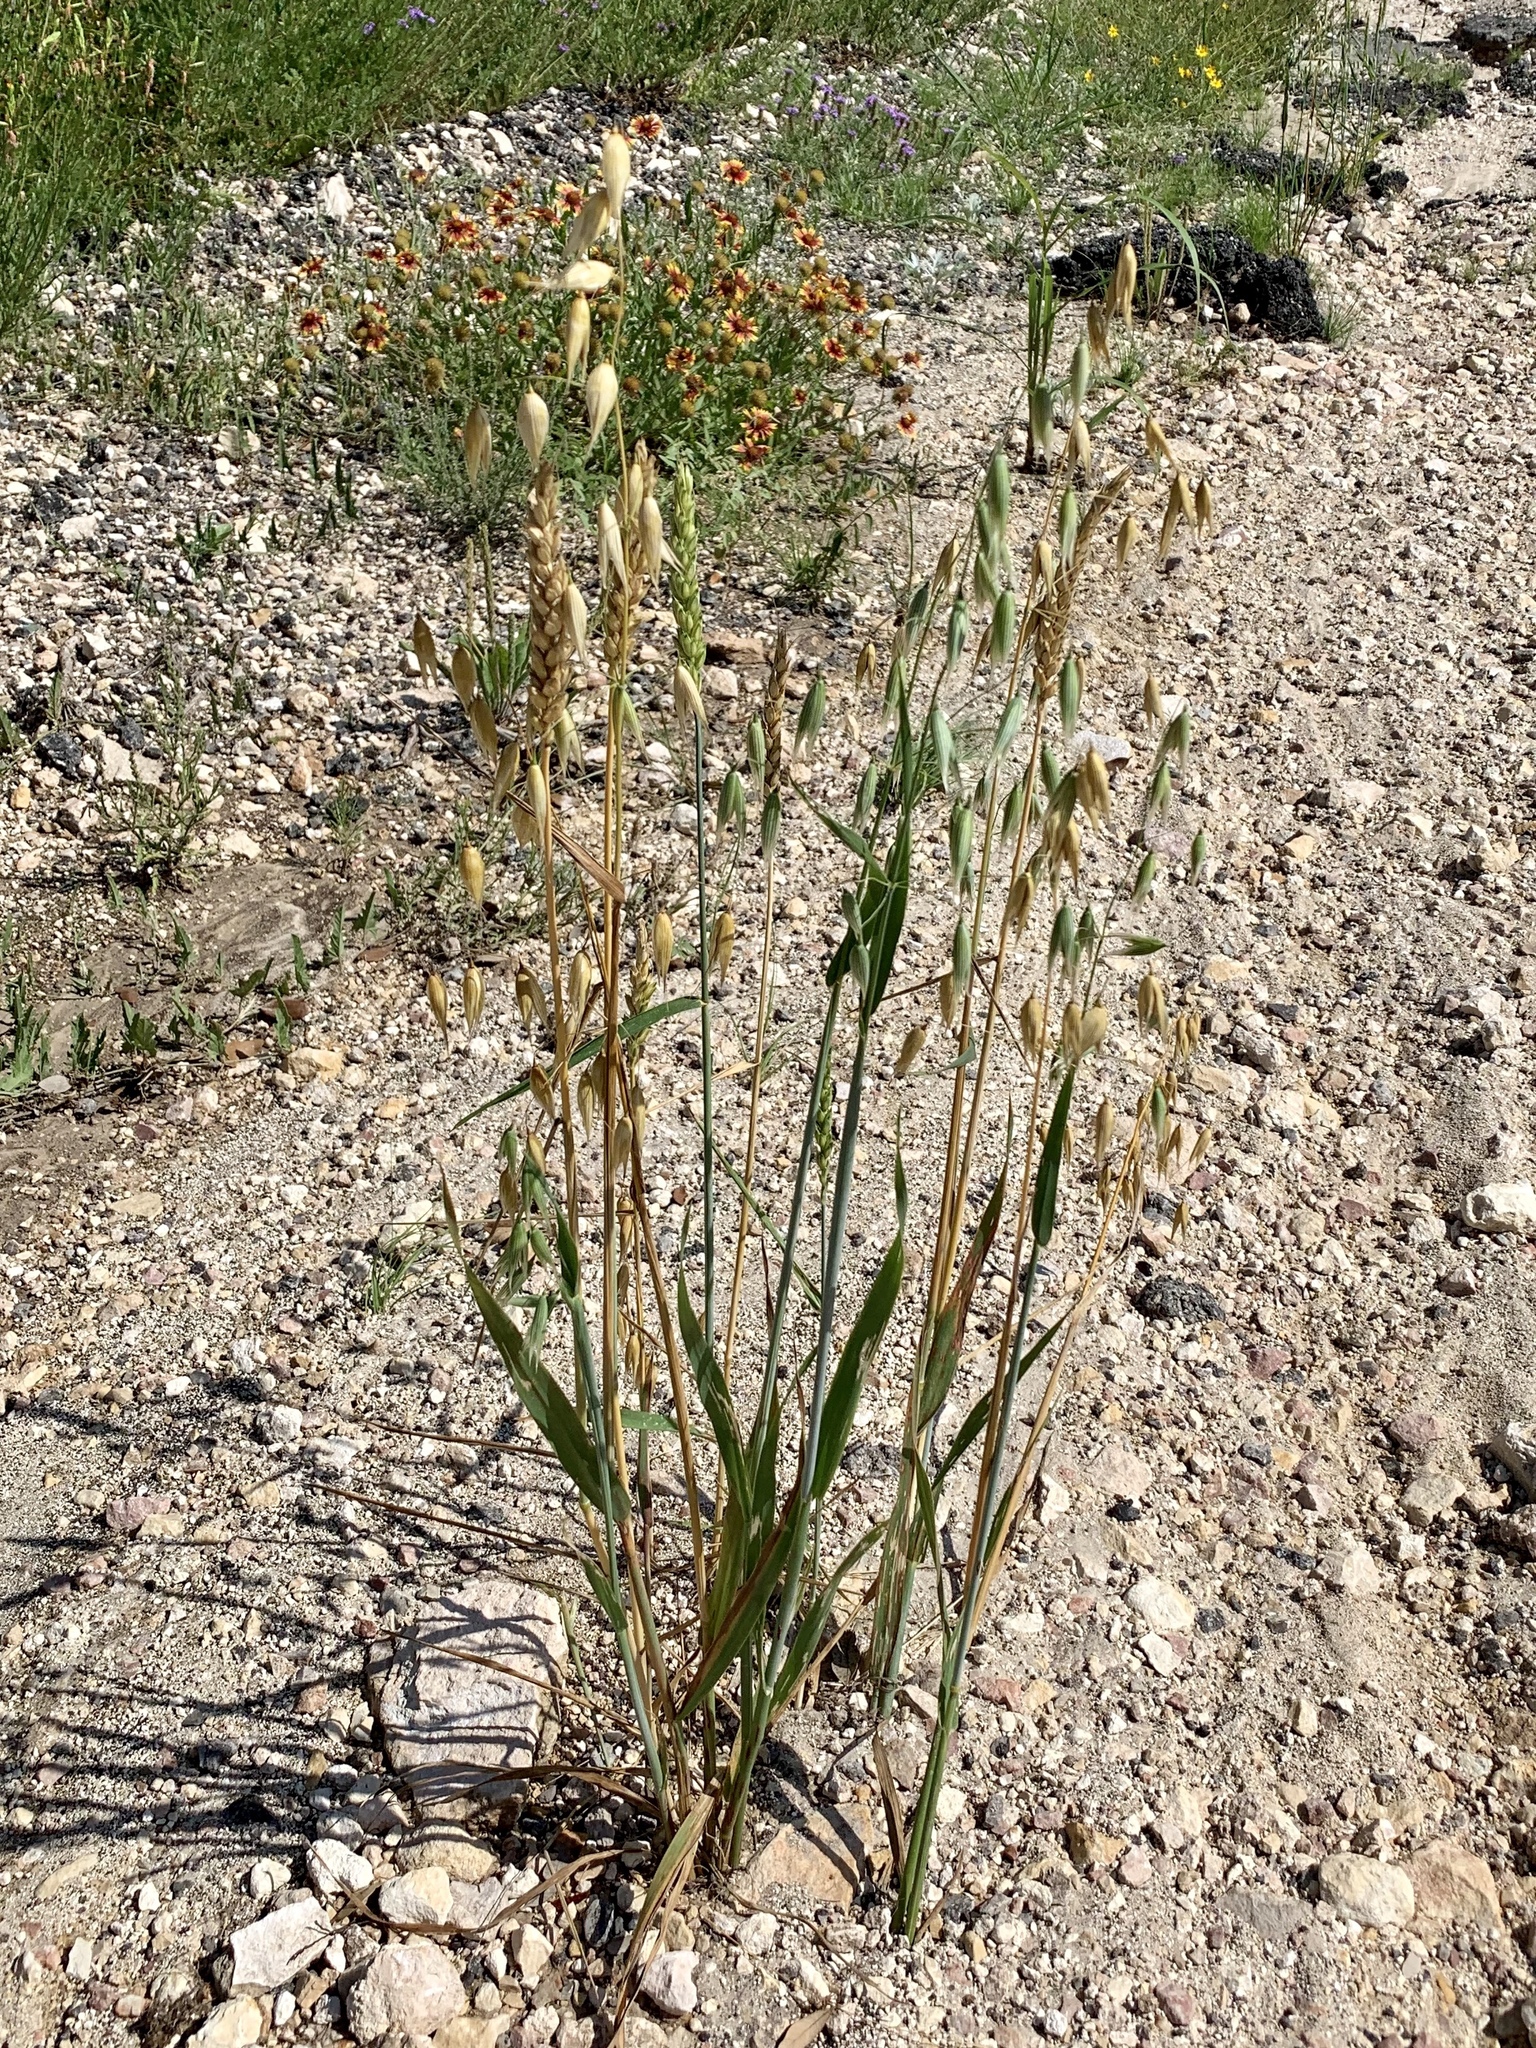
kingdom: Plantae
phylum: Tracheophyta
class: Liliopsida
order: Poales
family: Poaceae
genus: Avena
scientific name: Avena fatua
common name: Wild oat
